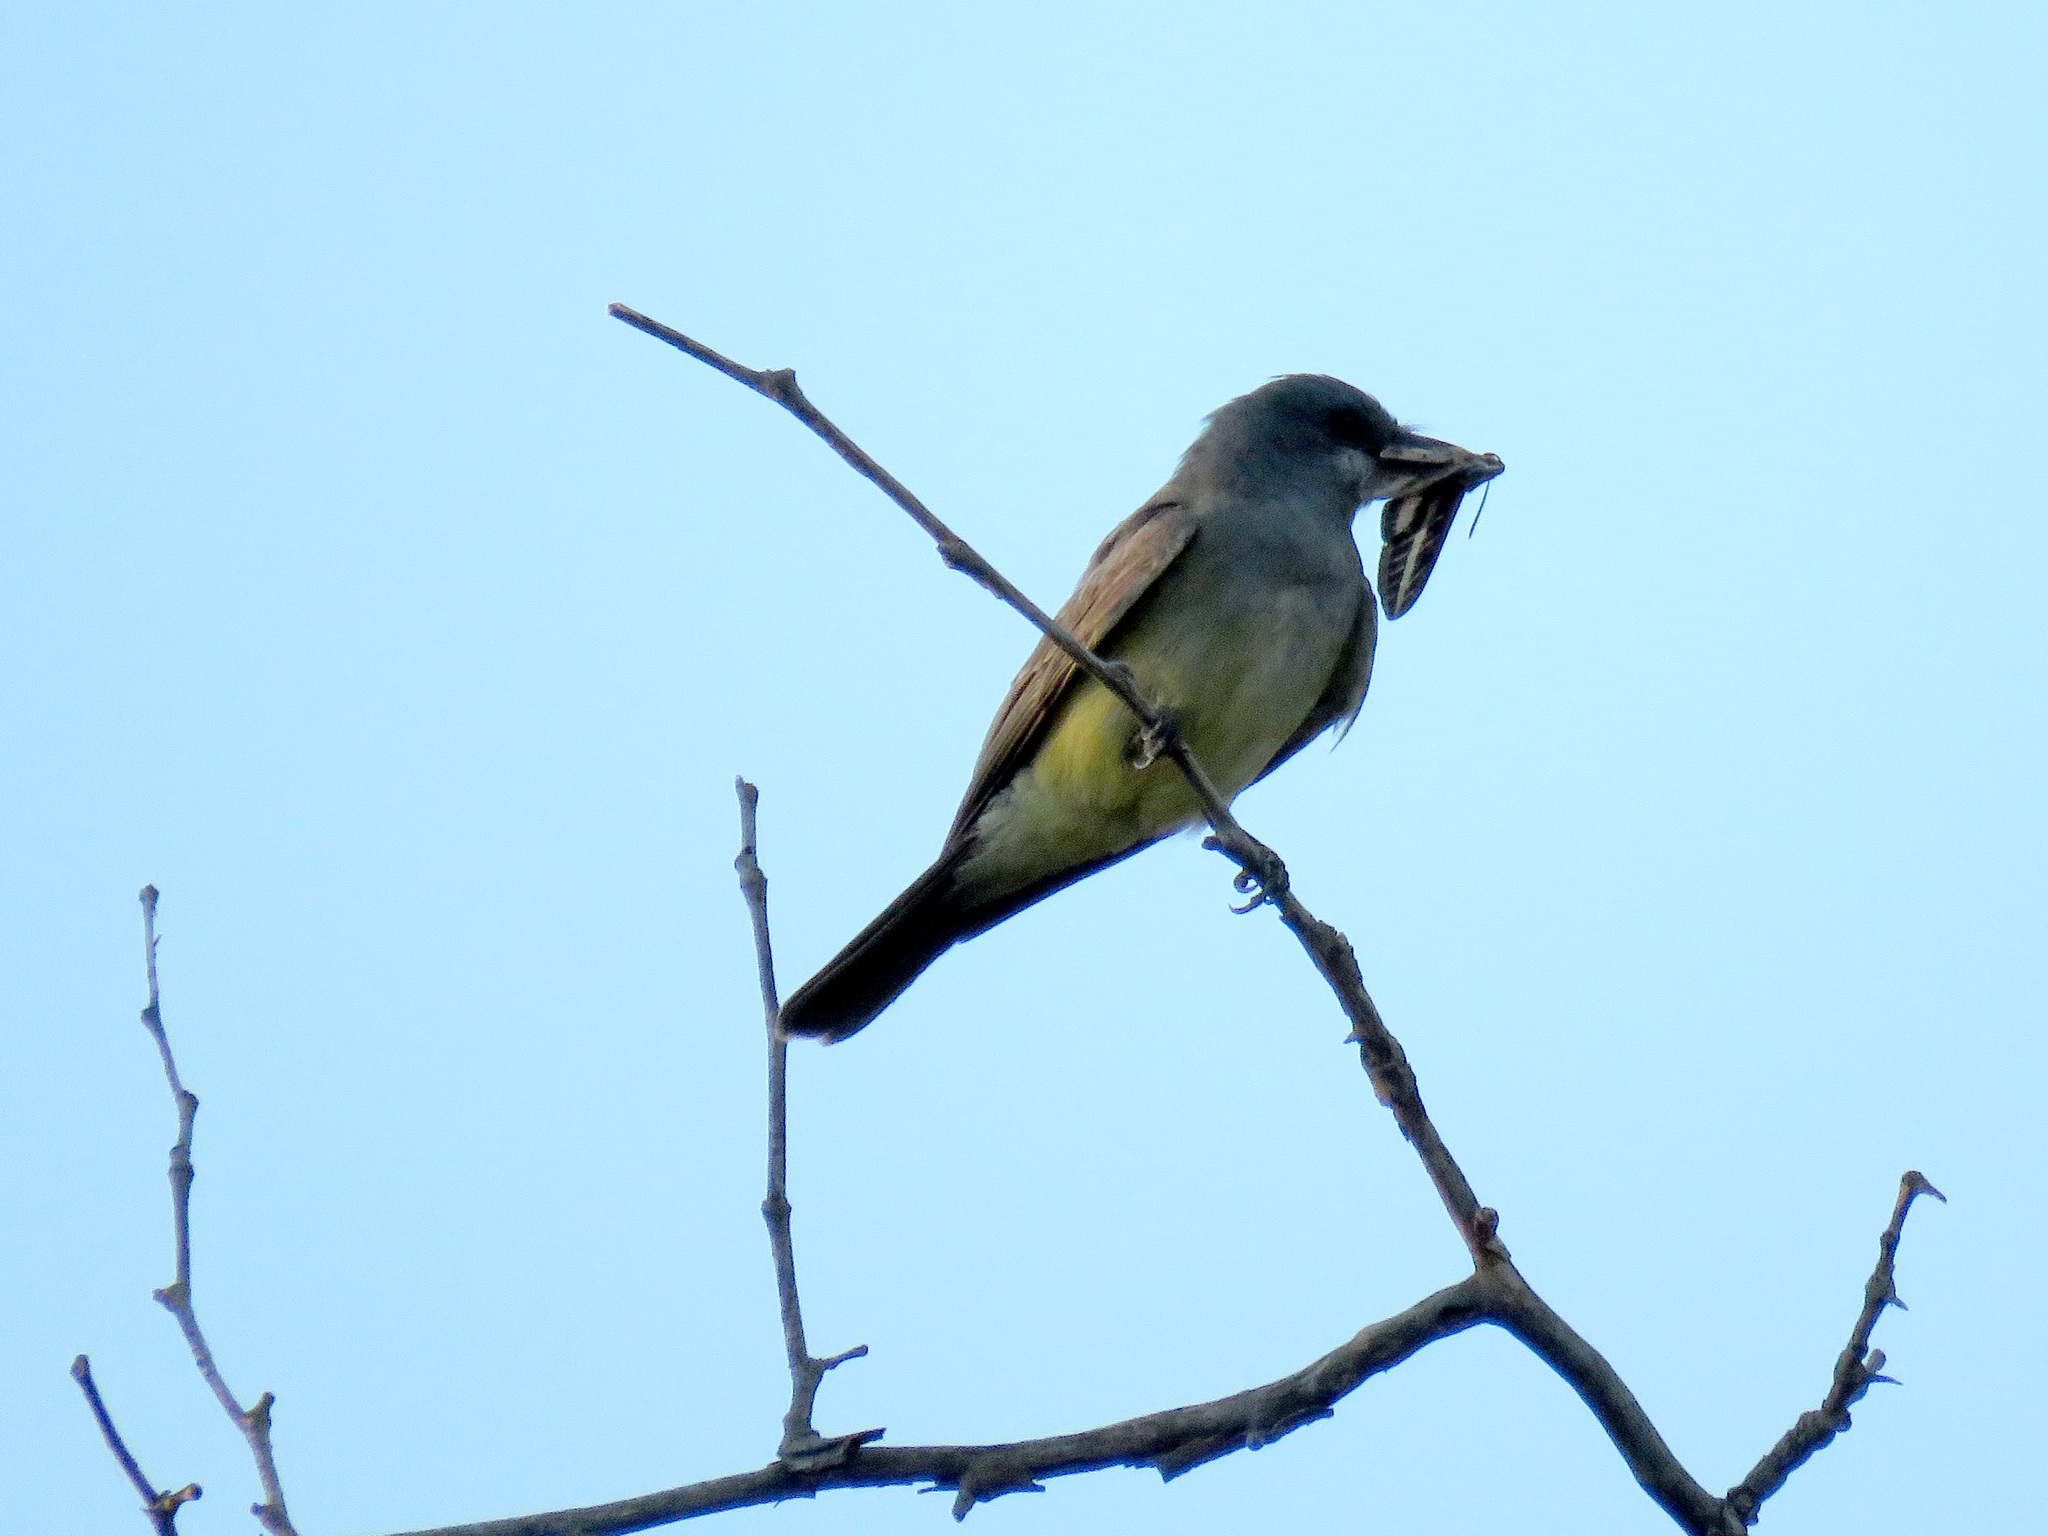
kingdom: Animalia
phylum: Chordata
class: Aves
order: Passeriformes
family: Tyrannidae
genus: Tyrannus
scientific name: Tyrannus vociferans
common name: Cassin's kingbird
